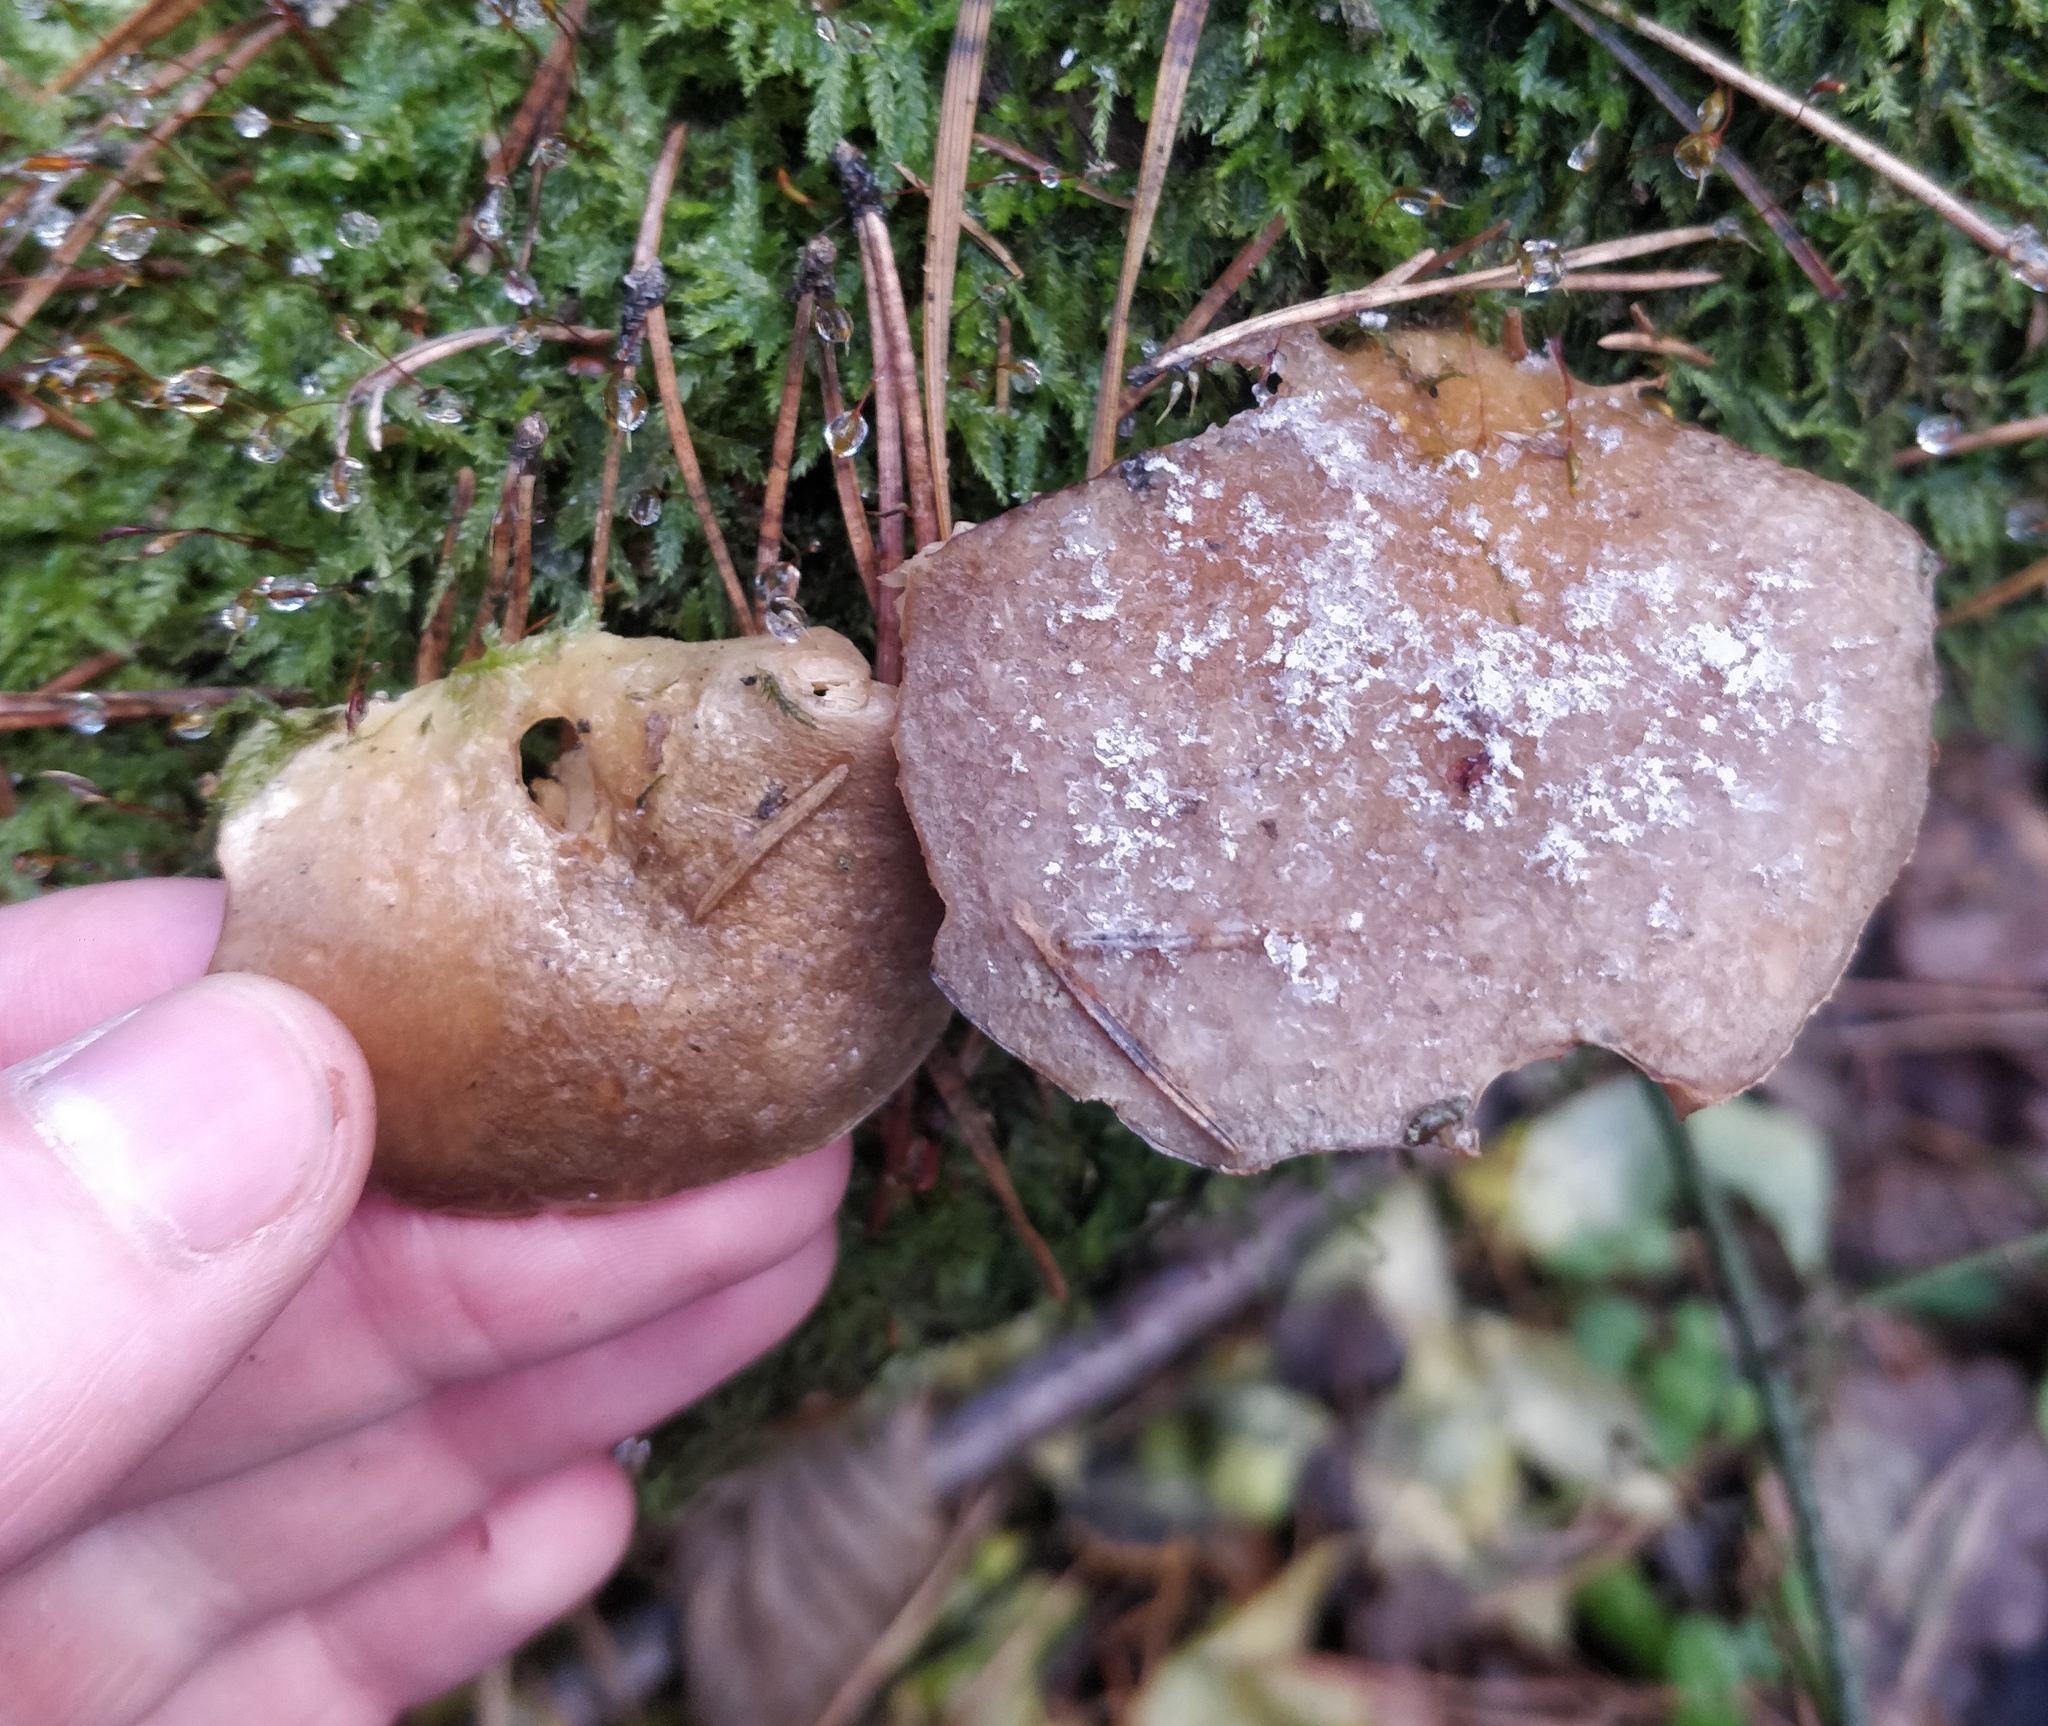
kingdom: Fungi
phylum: Basidiomycota
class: Agaricomycetes
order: Agaricales
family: Sarcomyxaceae
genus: Sarcomyxa
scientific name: Sarcomyxa serotina
